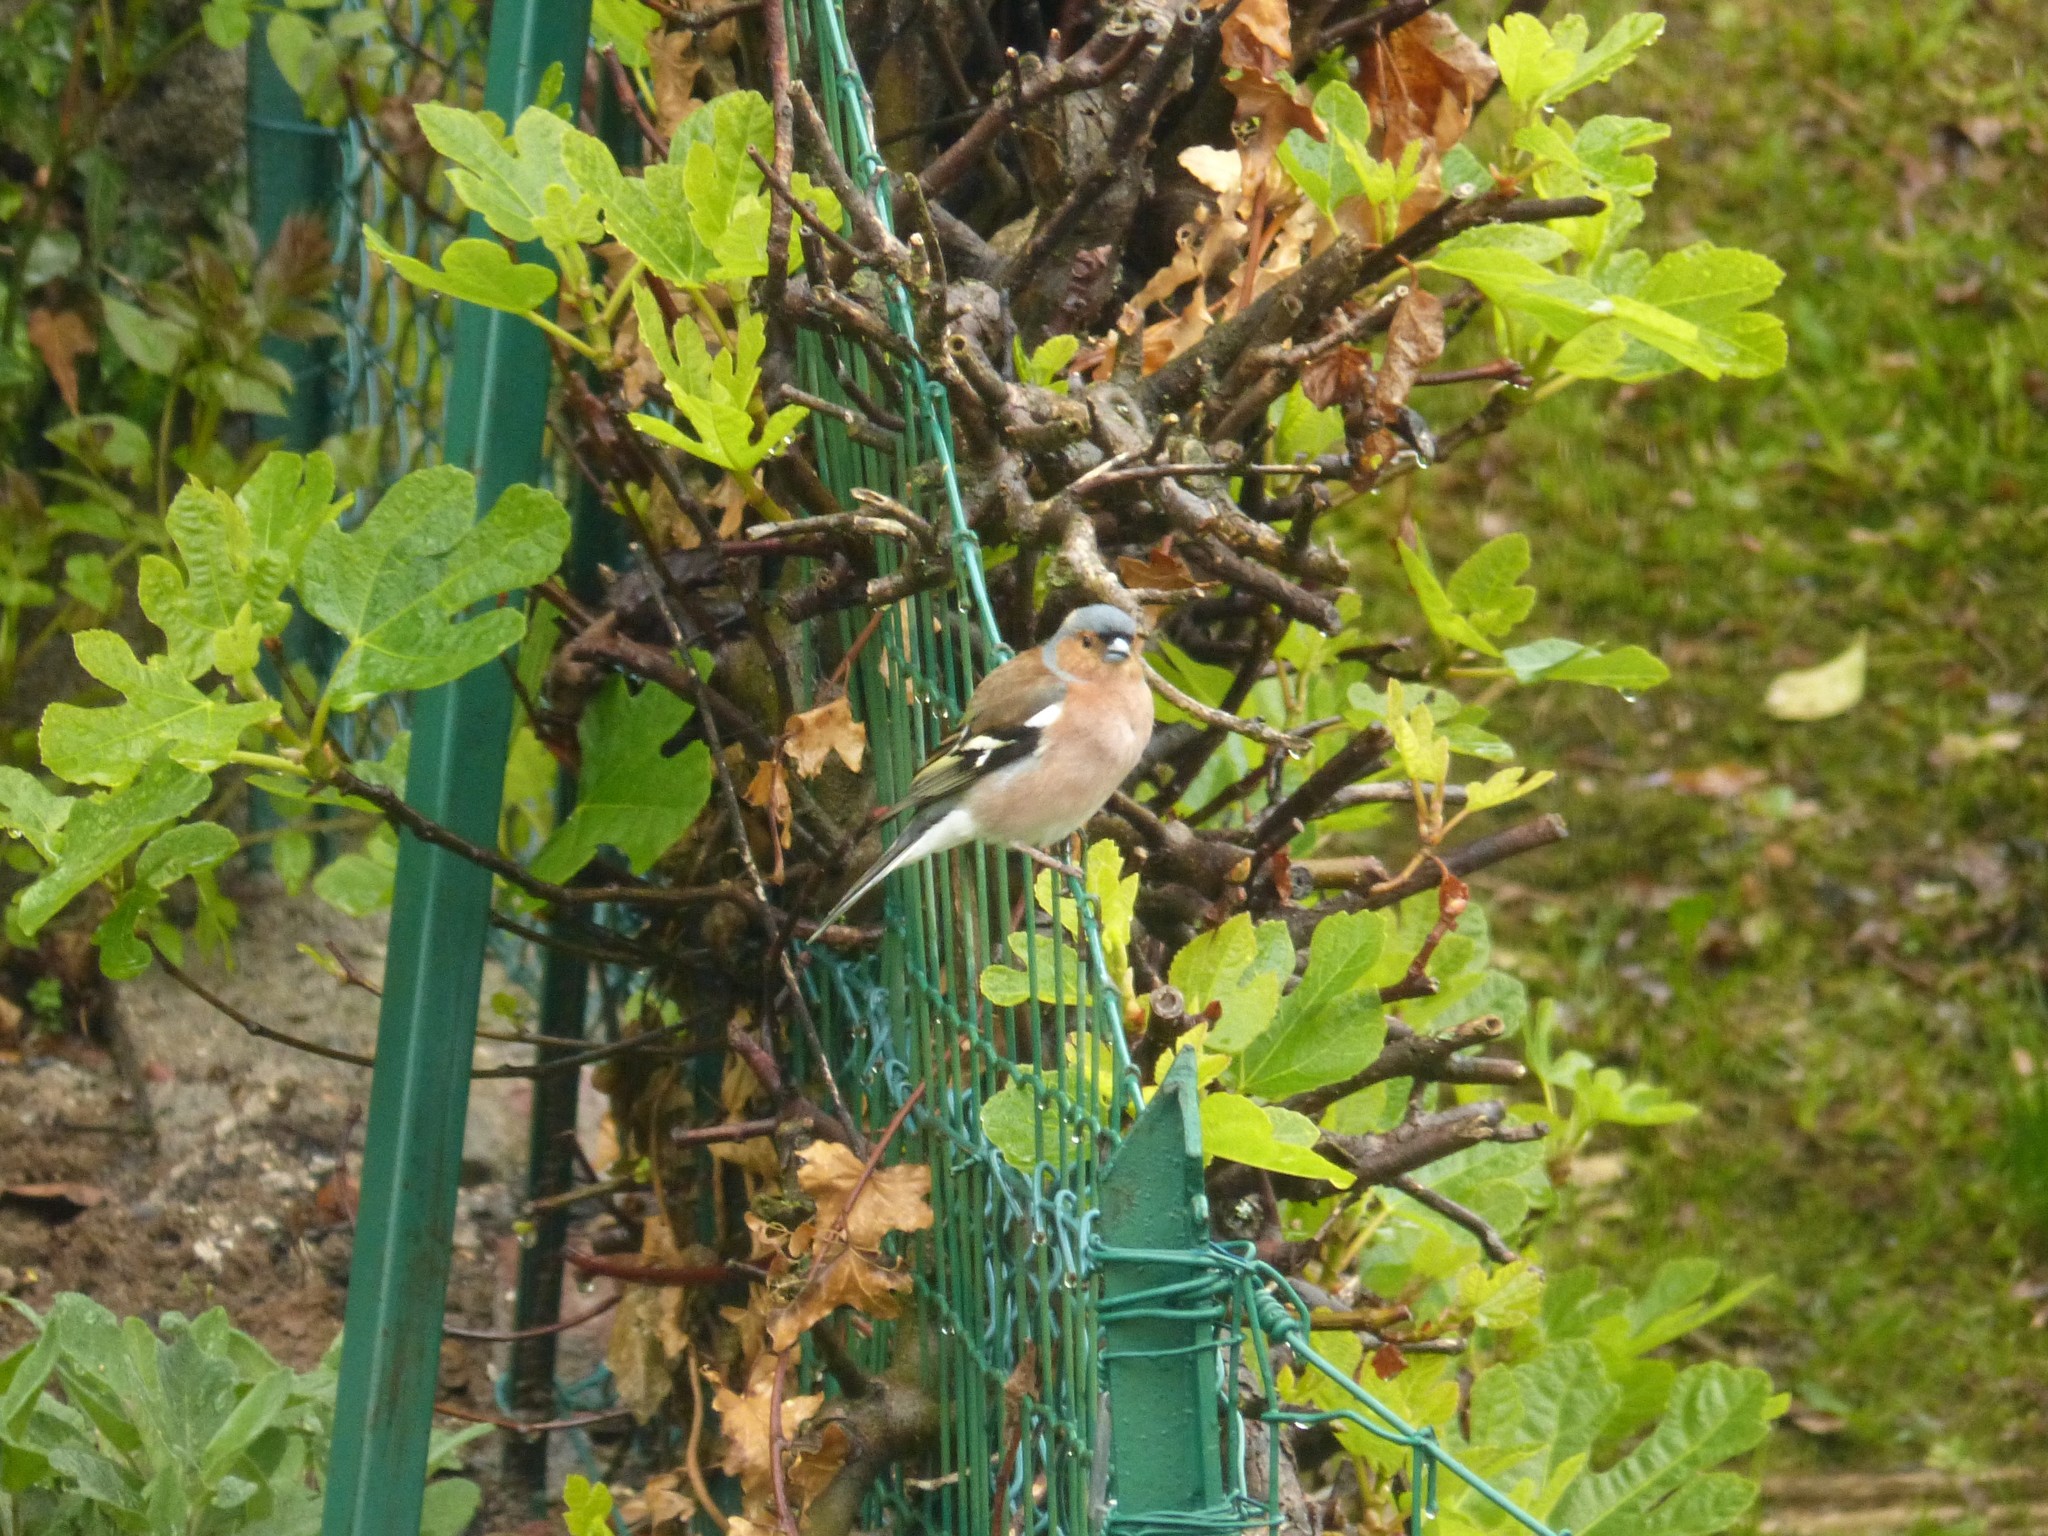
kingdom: Animalia
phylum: Chordata
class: Aves
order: Passeriformes
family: Fringillidae
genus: Fringilla
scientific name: Fringilla coelebs
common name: Common chaffinch
